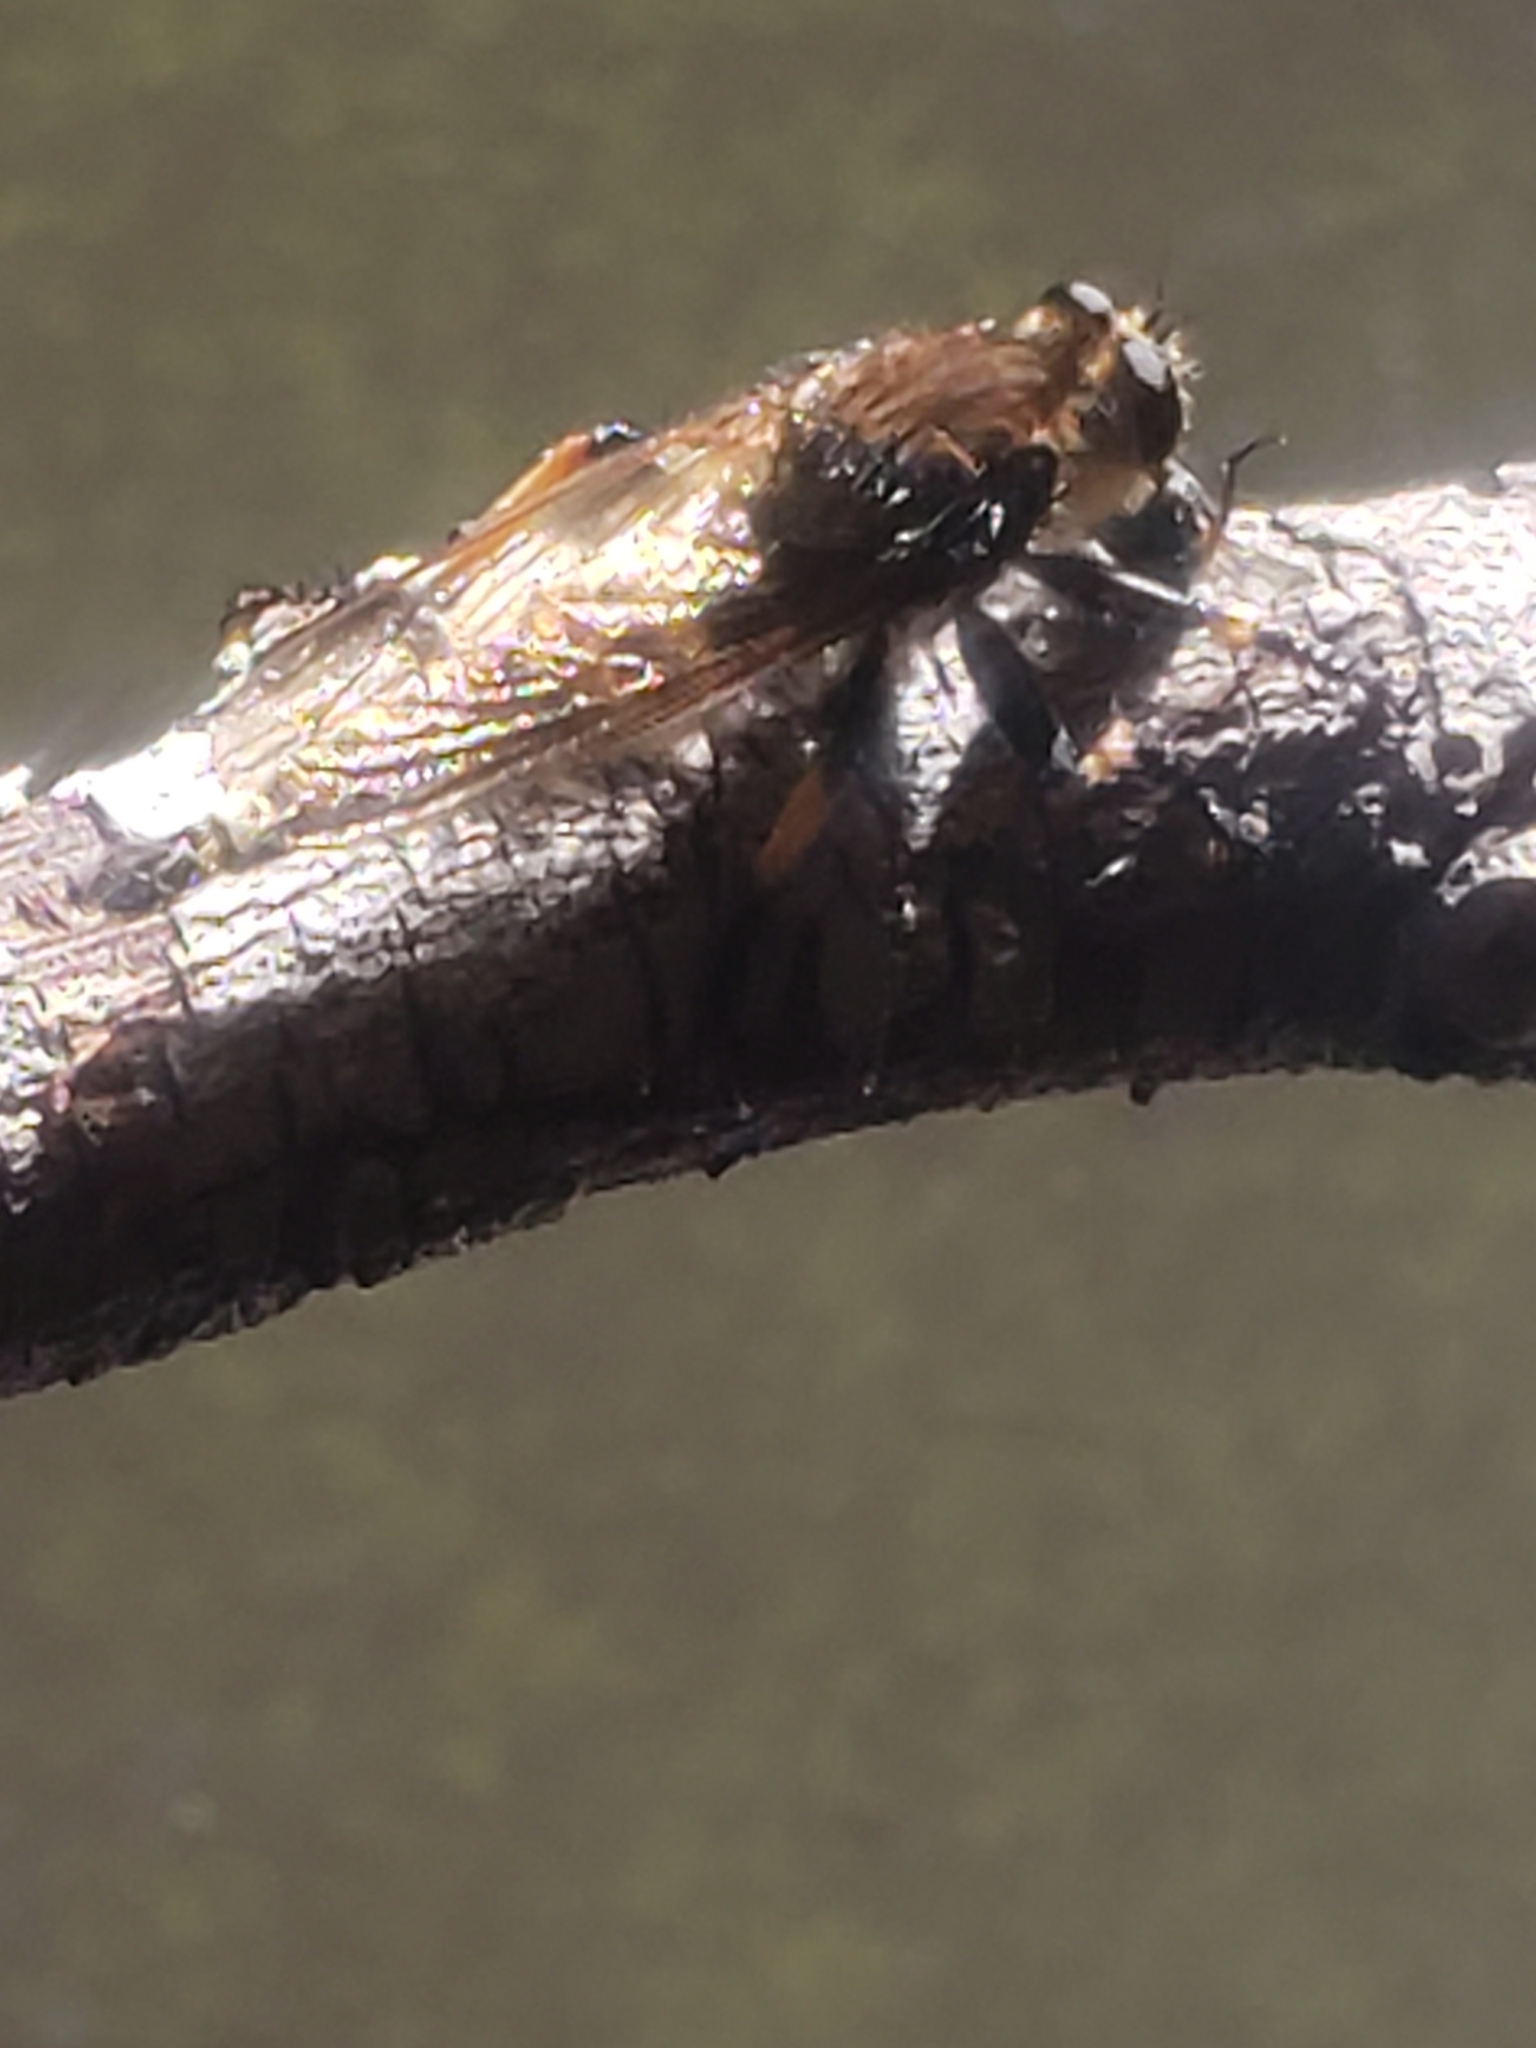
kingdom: Animalia
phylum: Arthropoda
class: Insecta
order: Diptera
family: Asilidae
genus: Promachus
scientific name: Promachus rufipes
